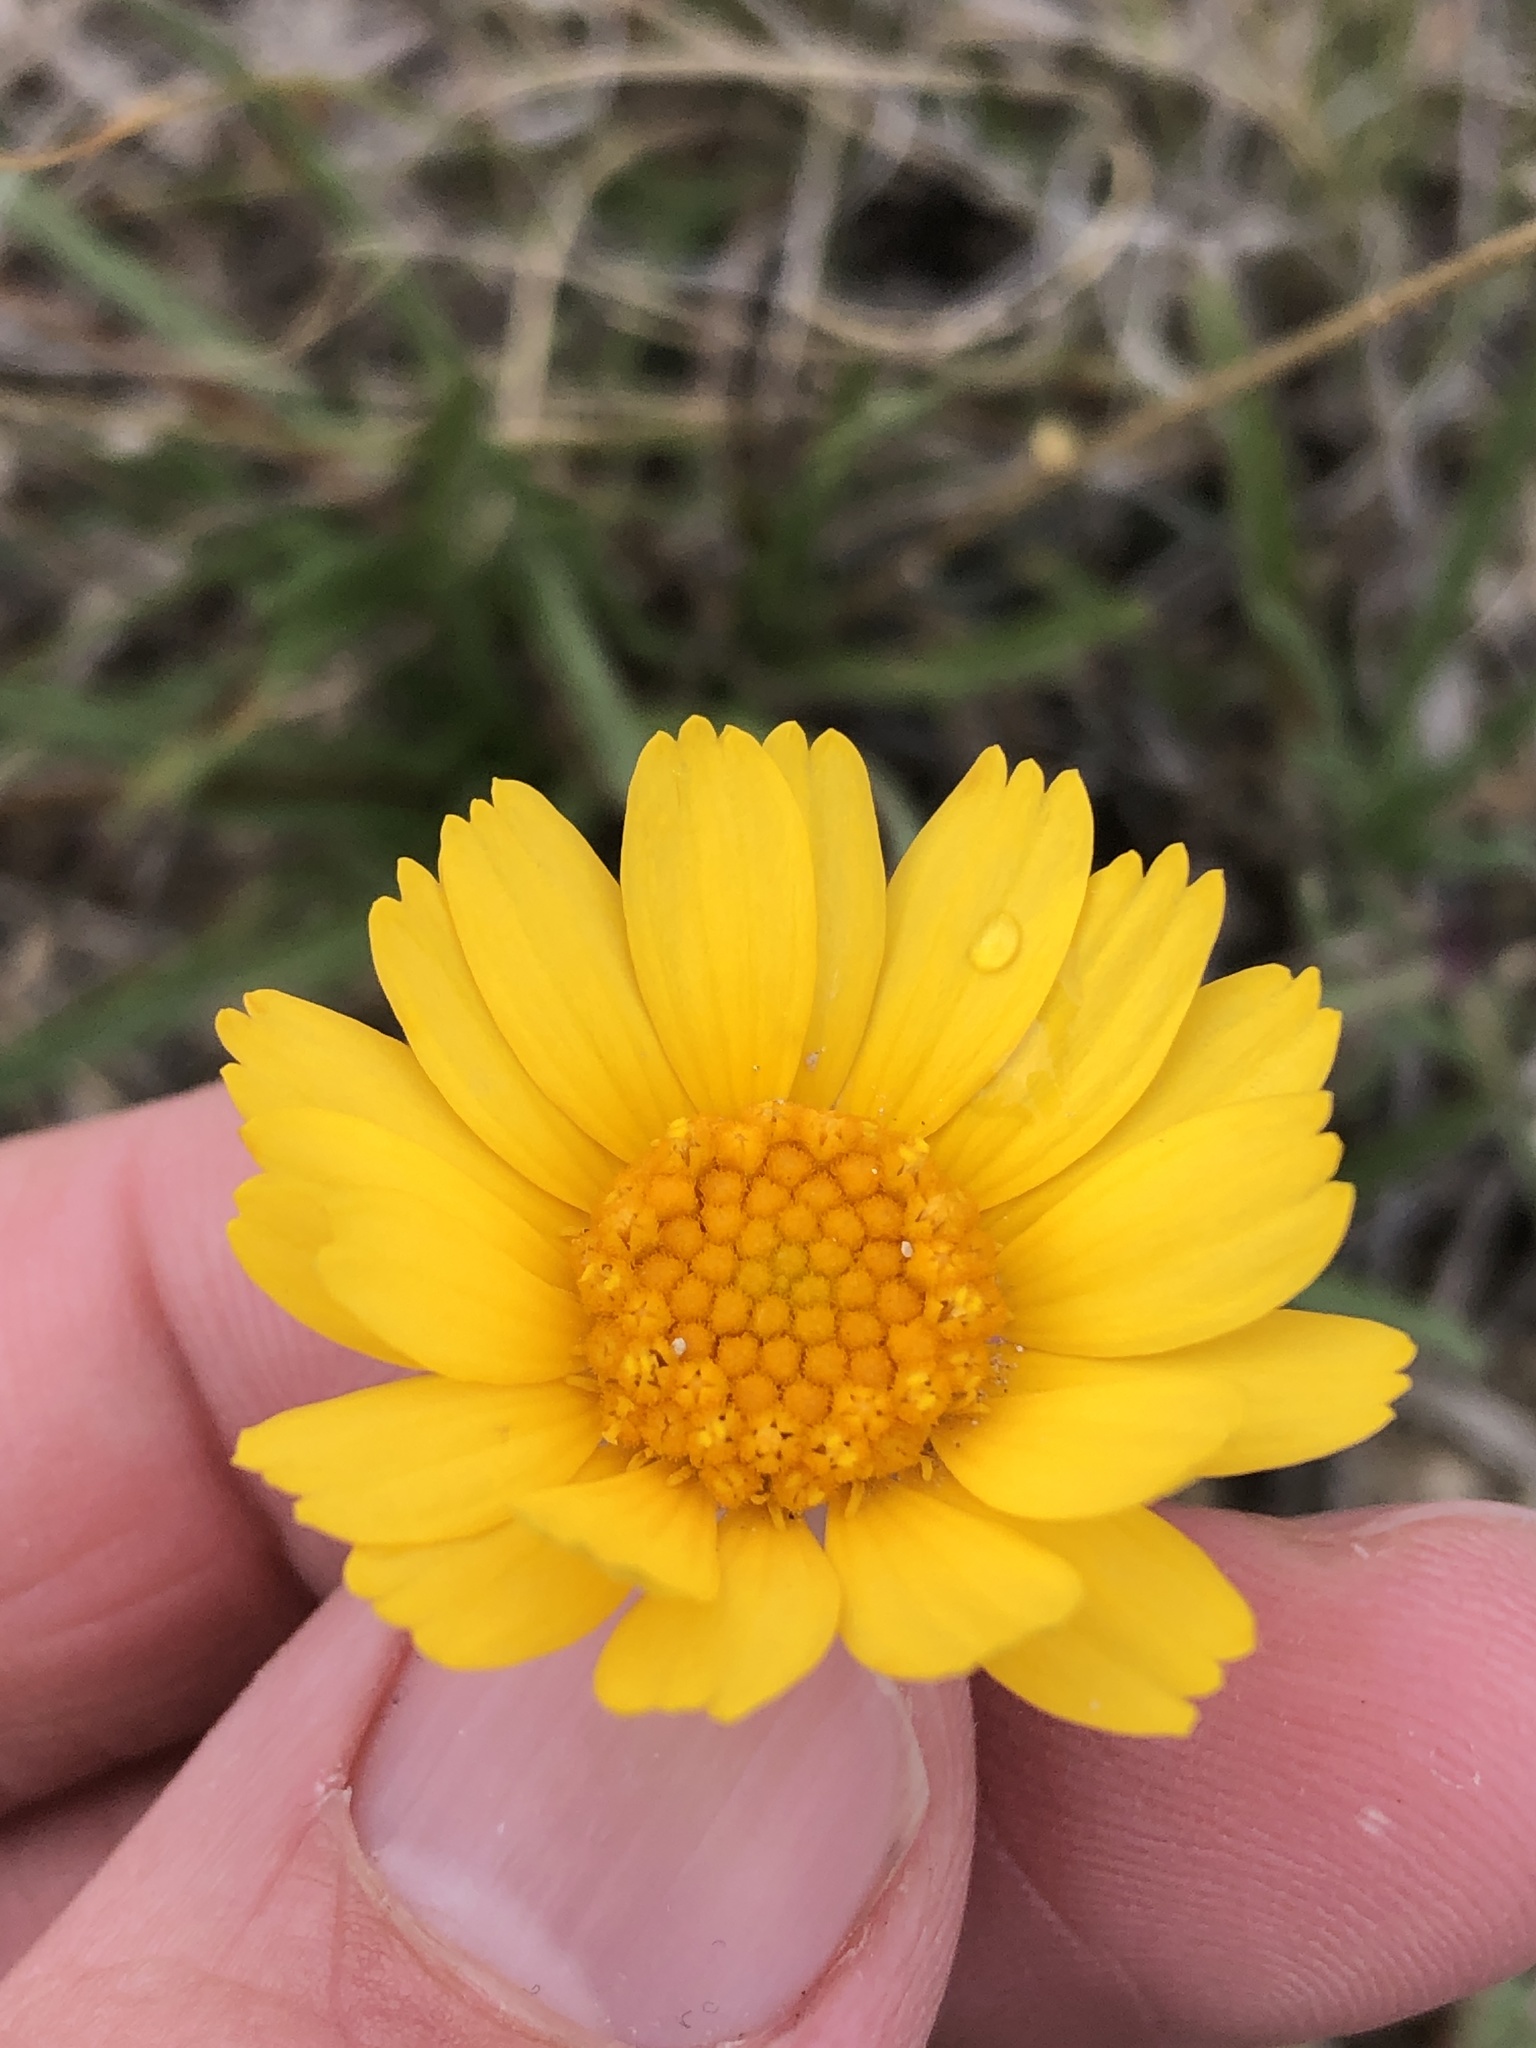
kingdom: Plantae
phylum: Tracheophyta
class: Magnoliopsida
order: Asterales
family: Asteraceae
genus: Tetraneuris
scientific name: Tetraneuris scaposa
